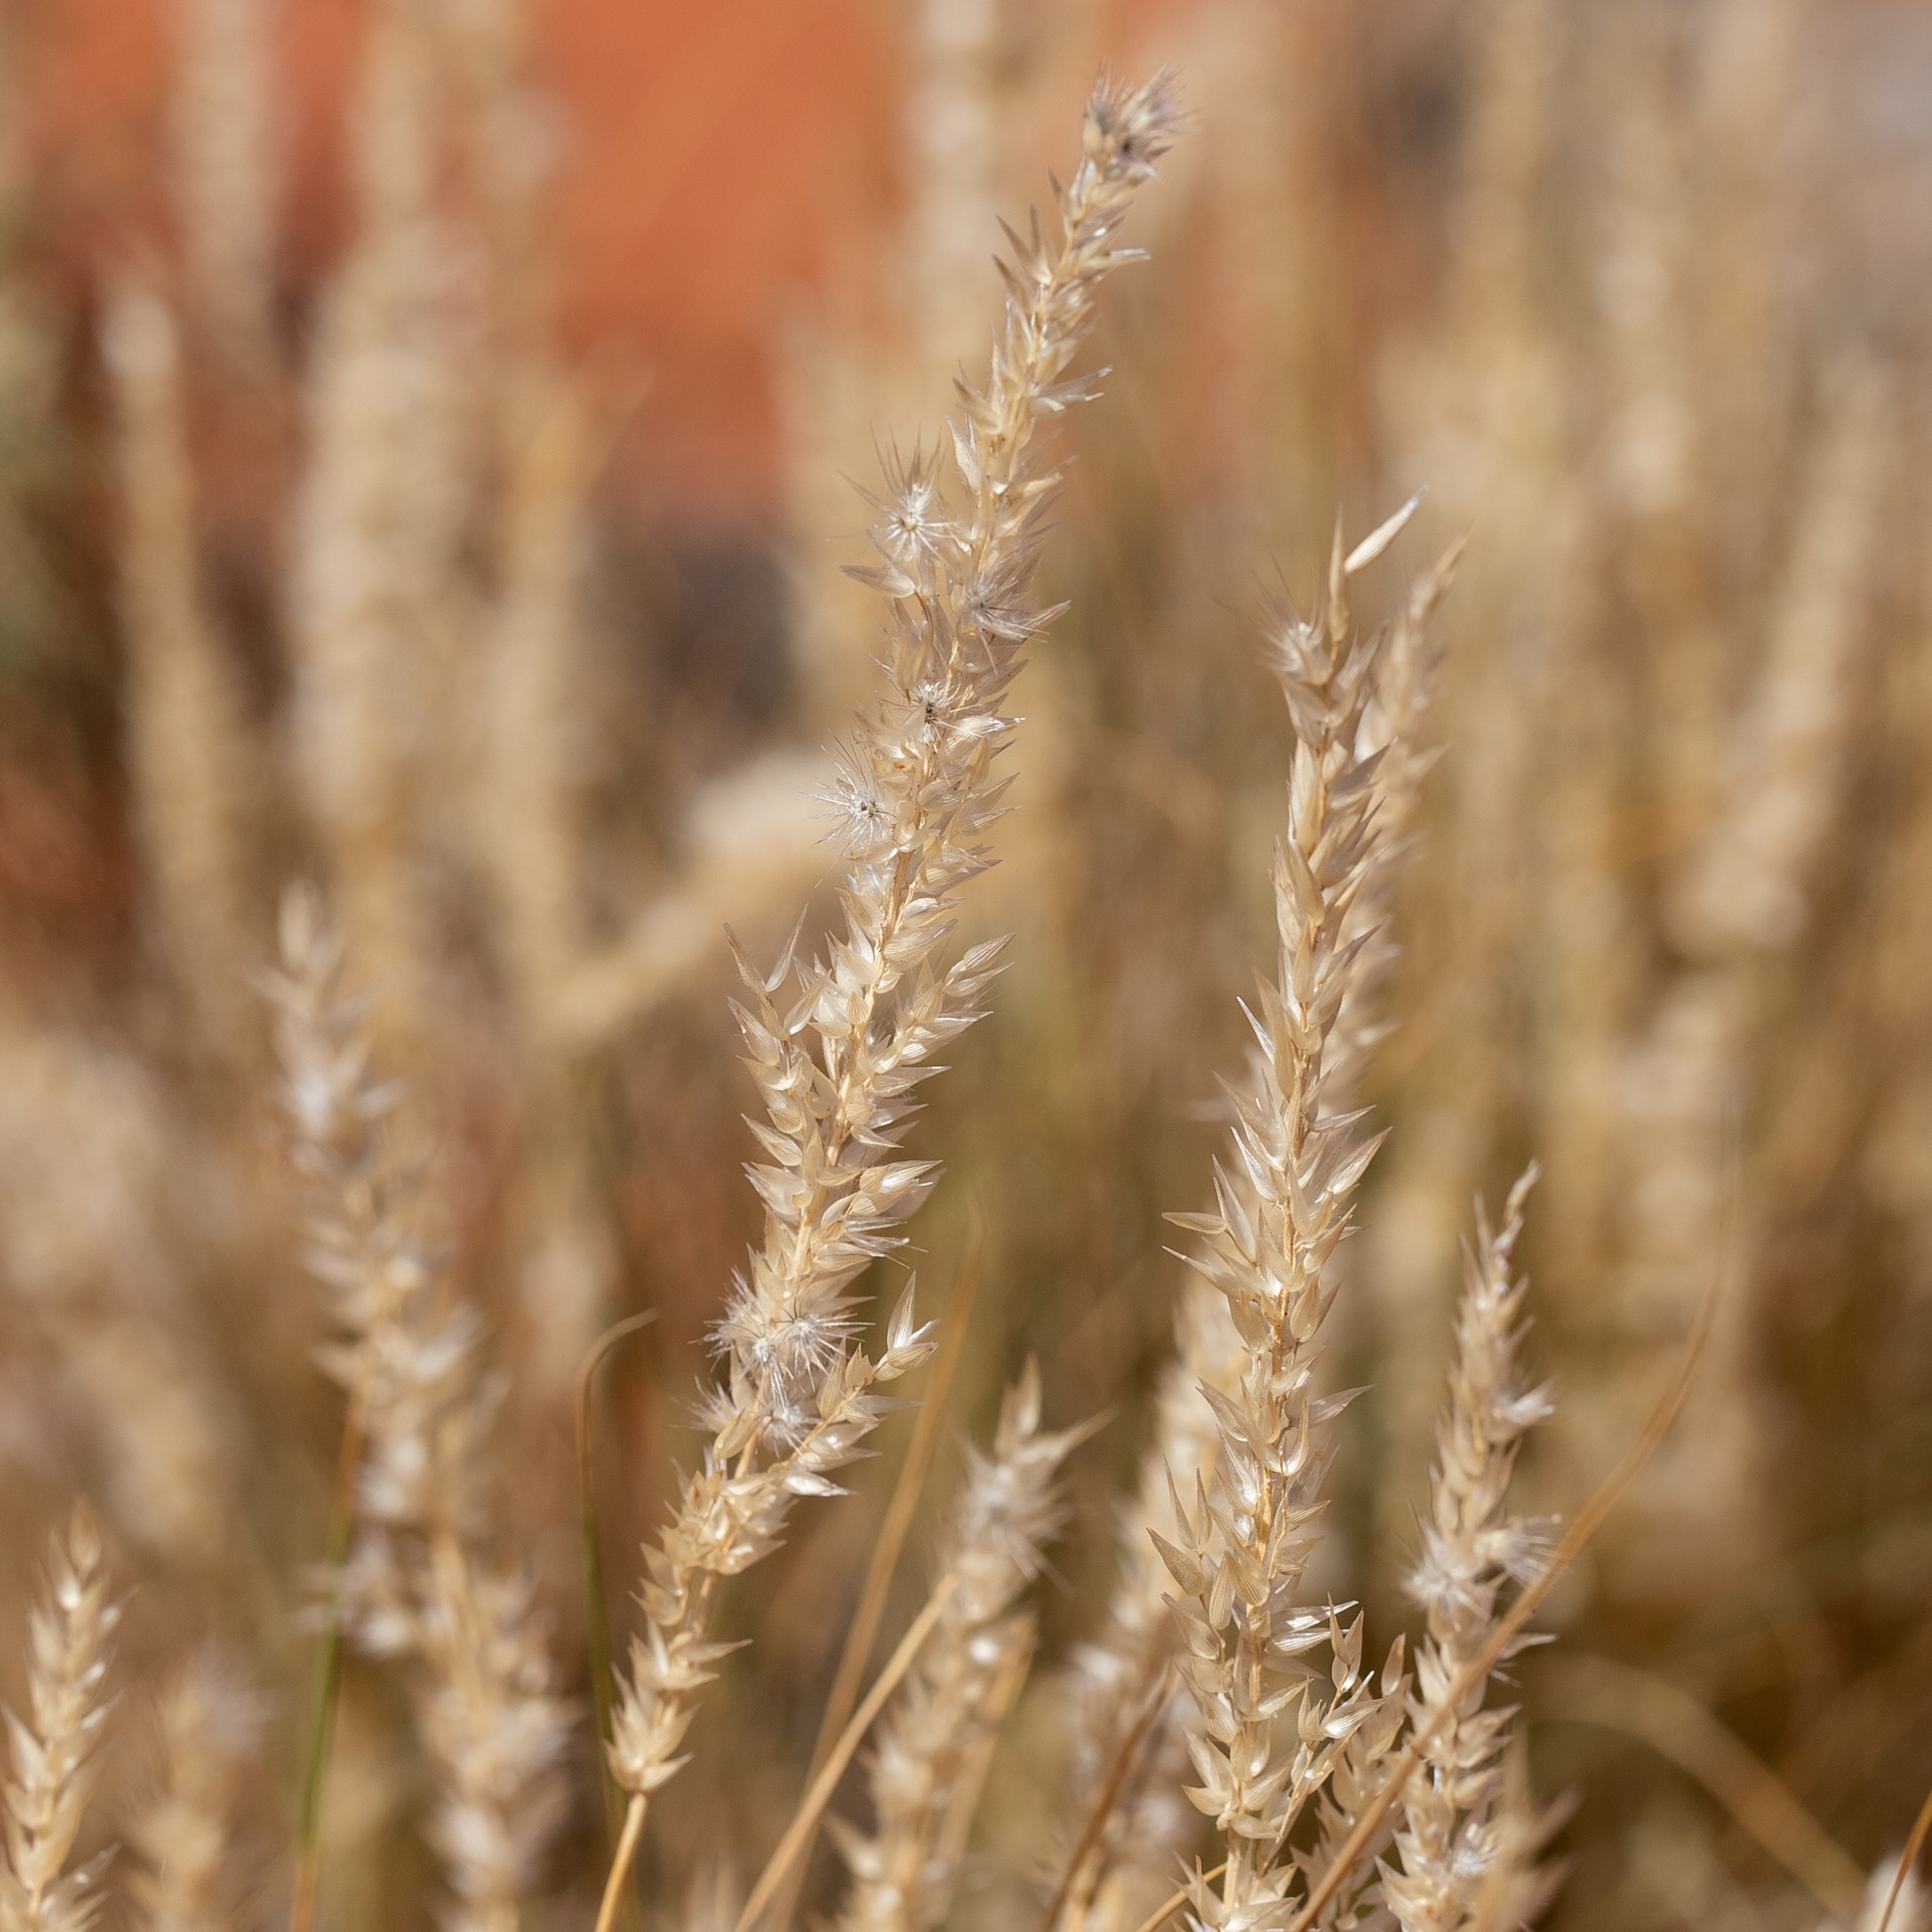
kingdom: Plantae
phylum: Tracheophyta
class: Liliopsida
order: Poales
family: Poaceae
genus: Enneapogon
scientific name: Enneapogon cylindricus
